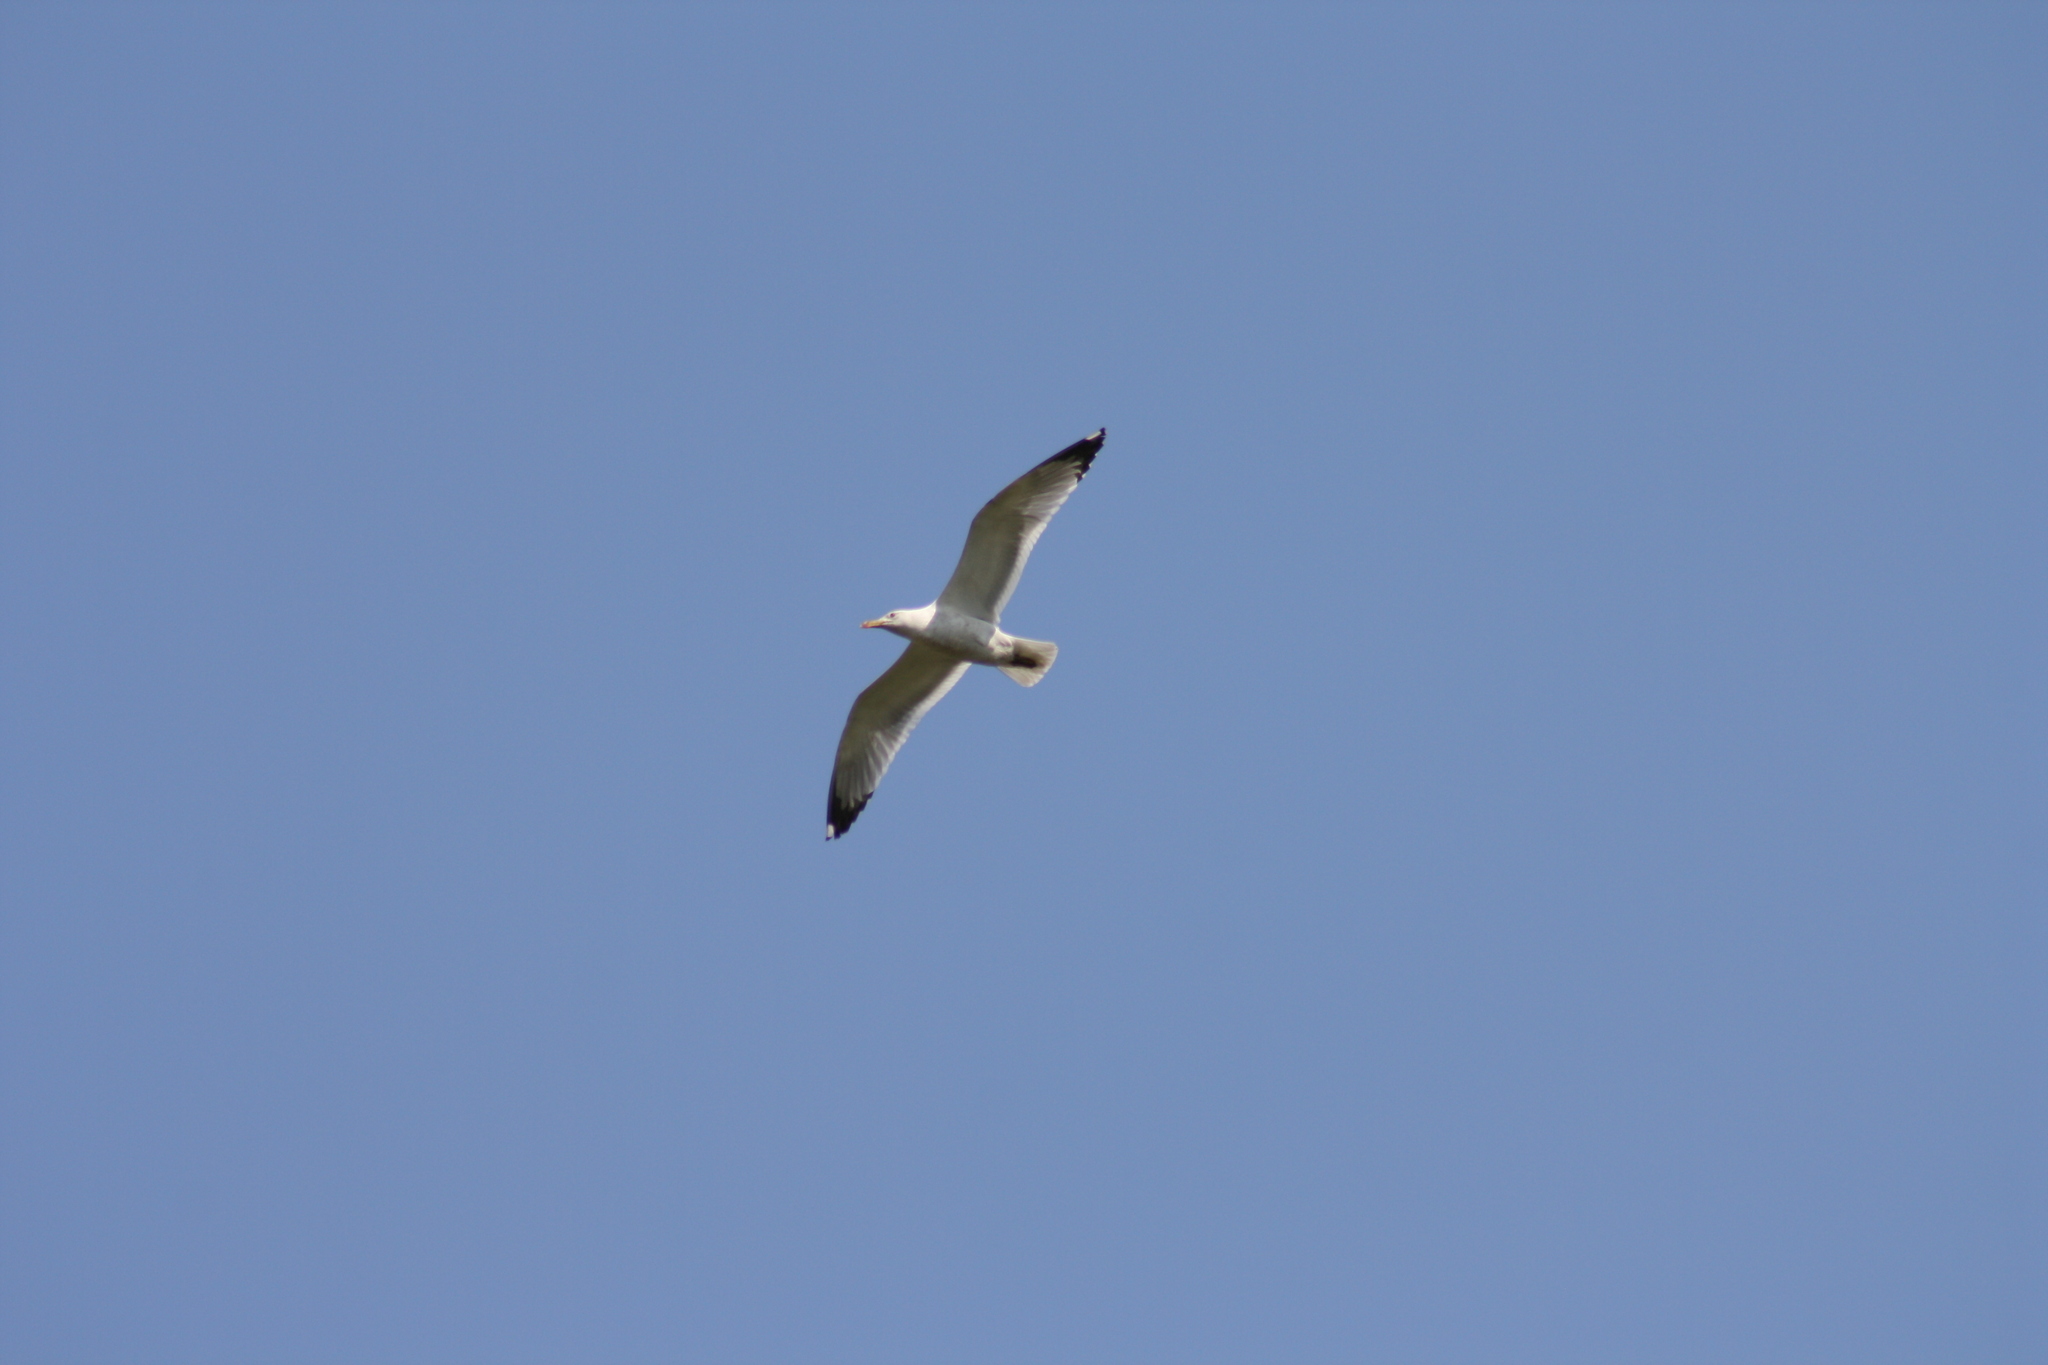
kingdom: Animalia
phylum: Chordata
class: Aves
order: Charadriiformes
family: Laridae
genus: Larus
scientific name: Larus argentatus
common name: Herring gull
